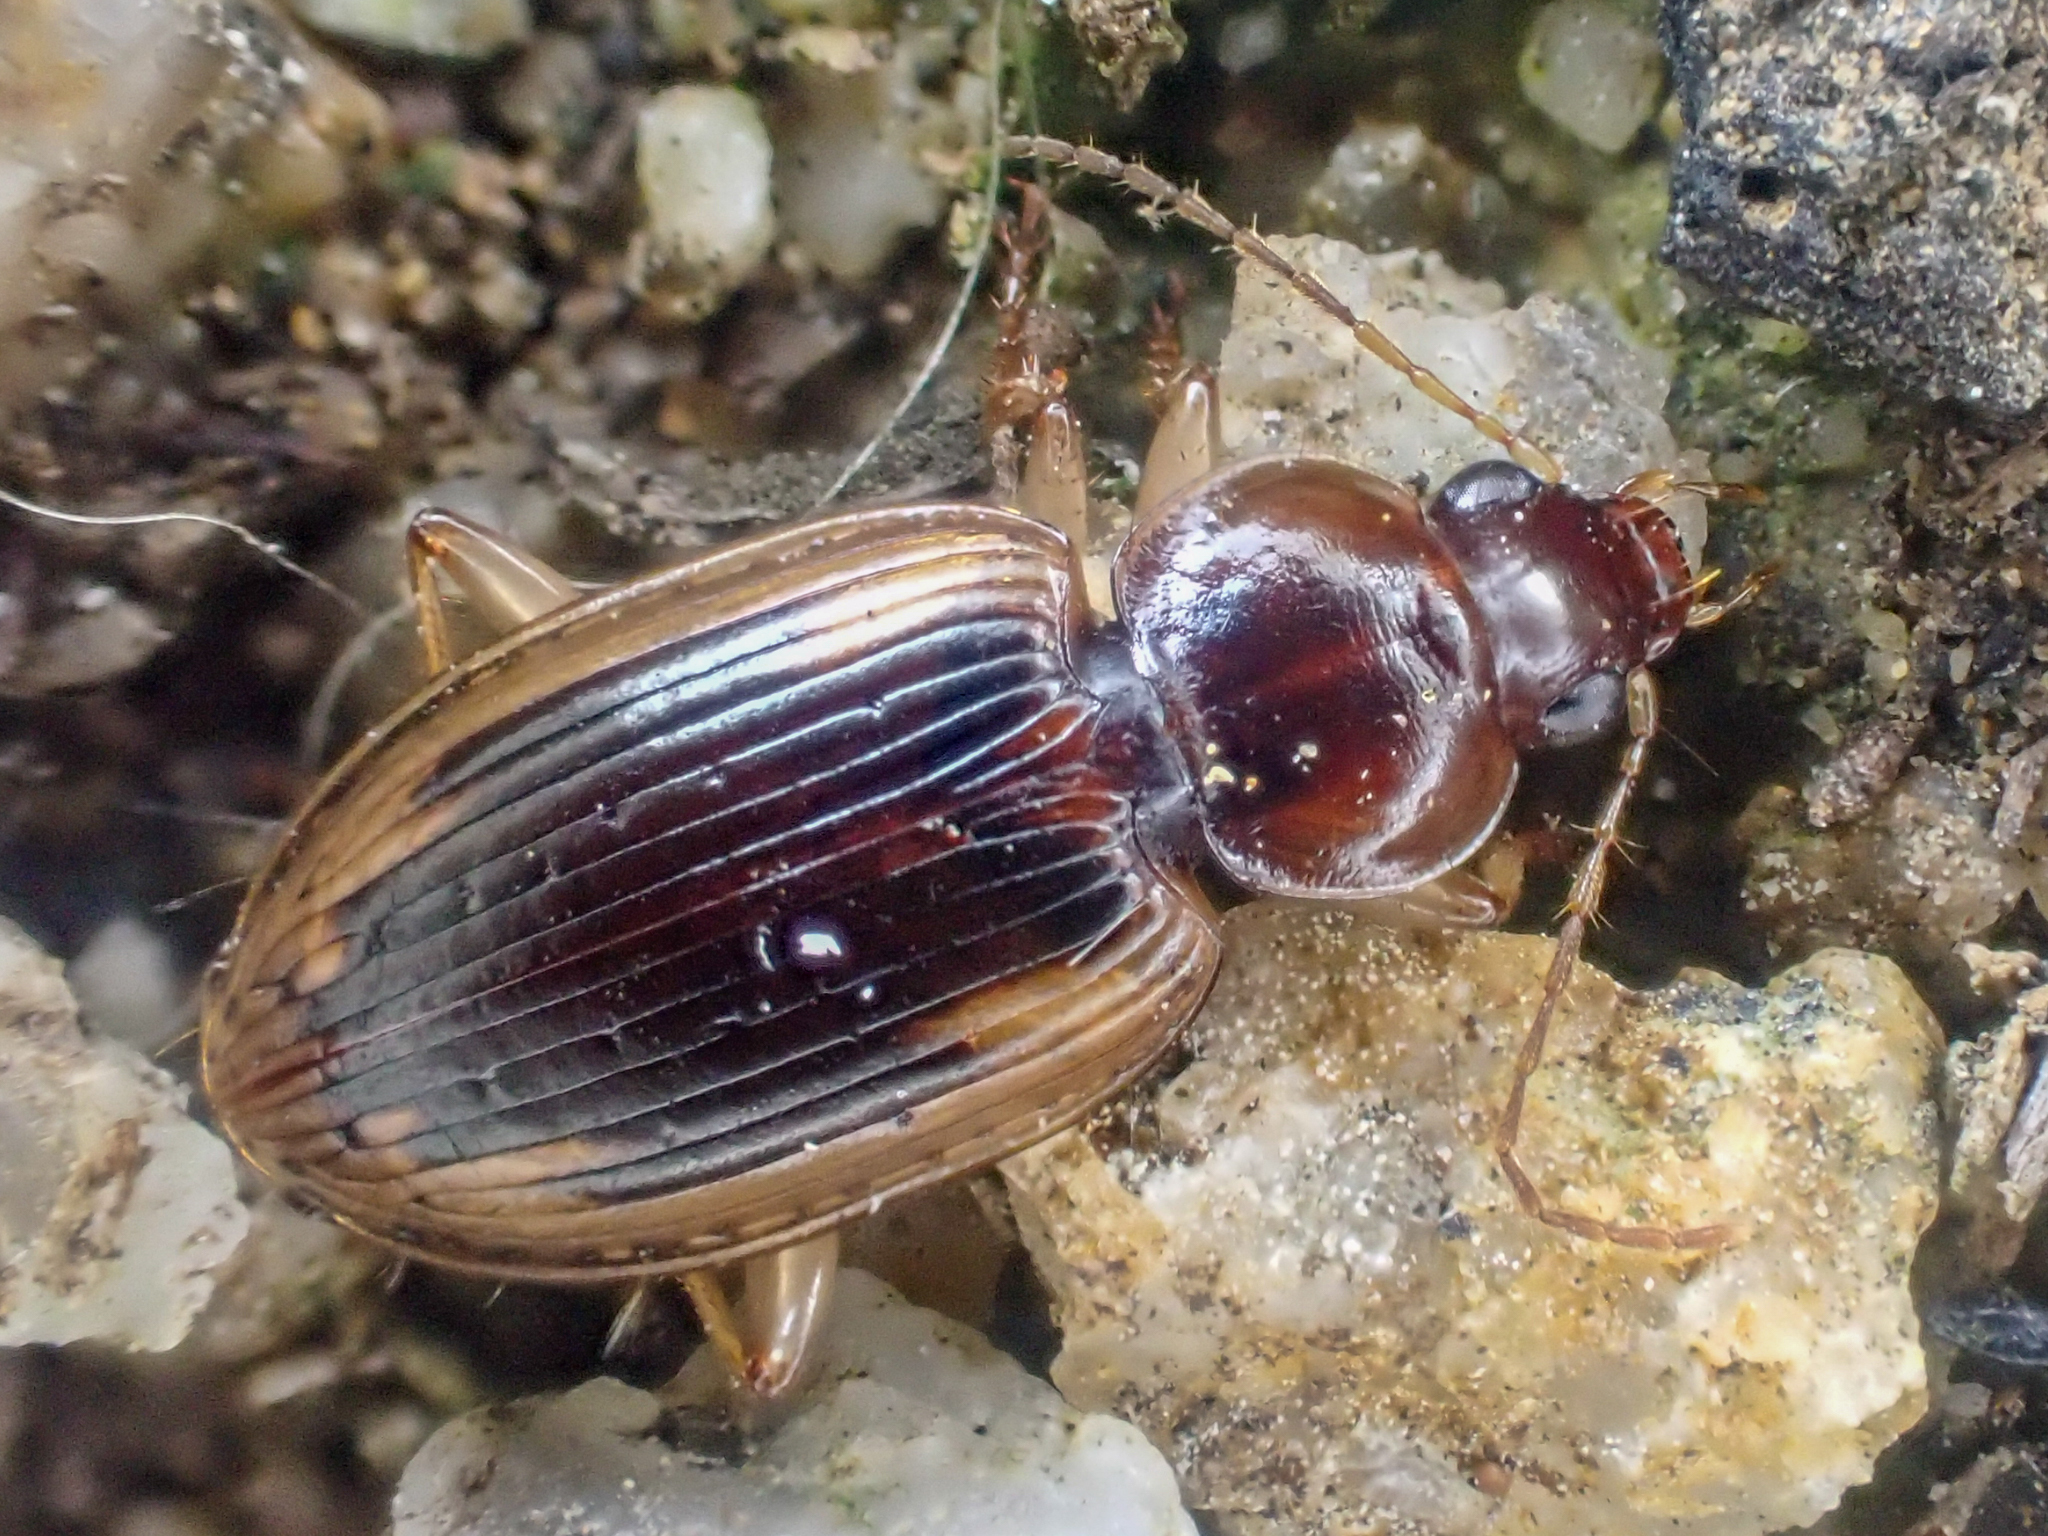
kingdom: Animalia
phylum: Arthropoda
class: Insecta
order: Coleoptera
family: Carabidae
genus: Tanystoma
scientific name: Tanystoma maculicolle
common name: Tule beetle
